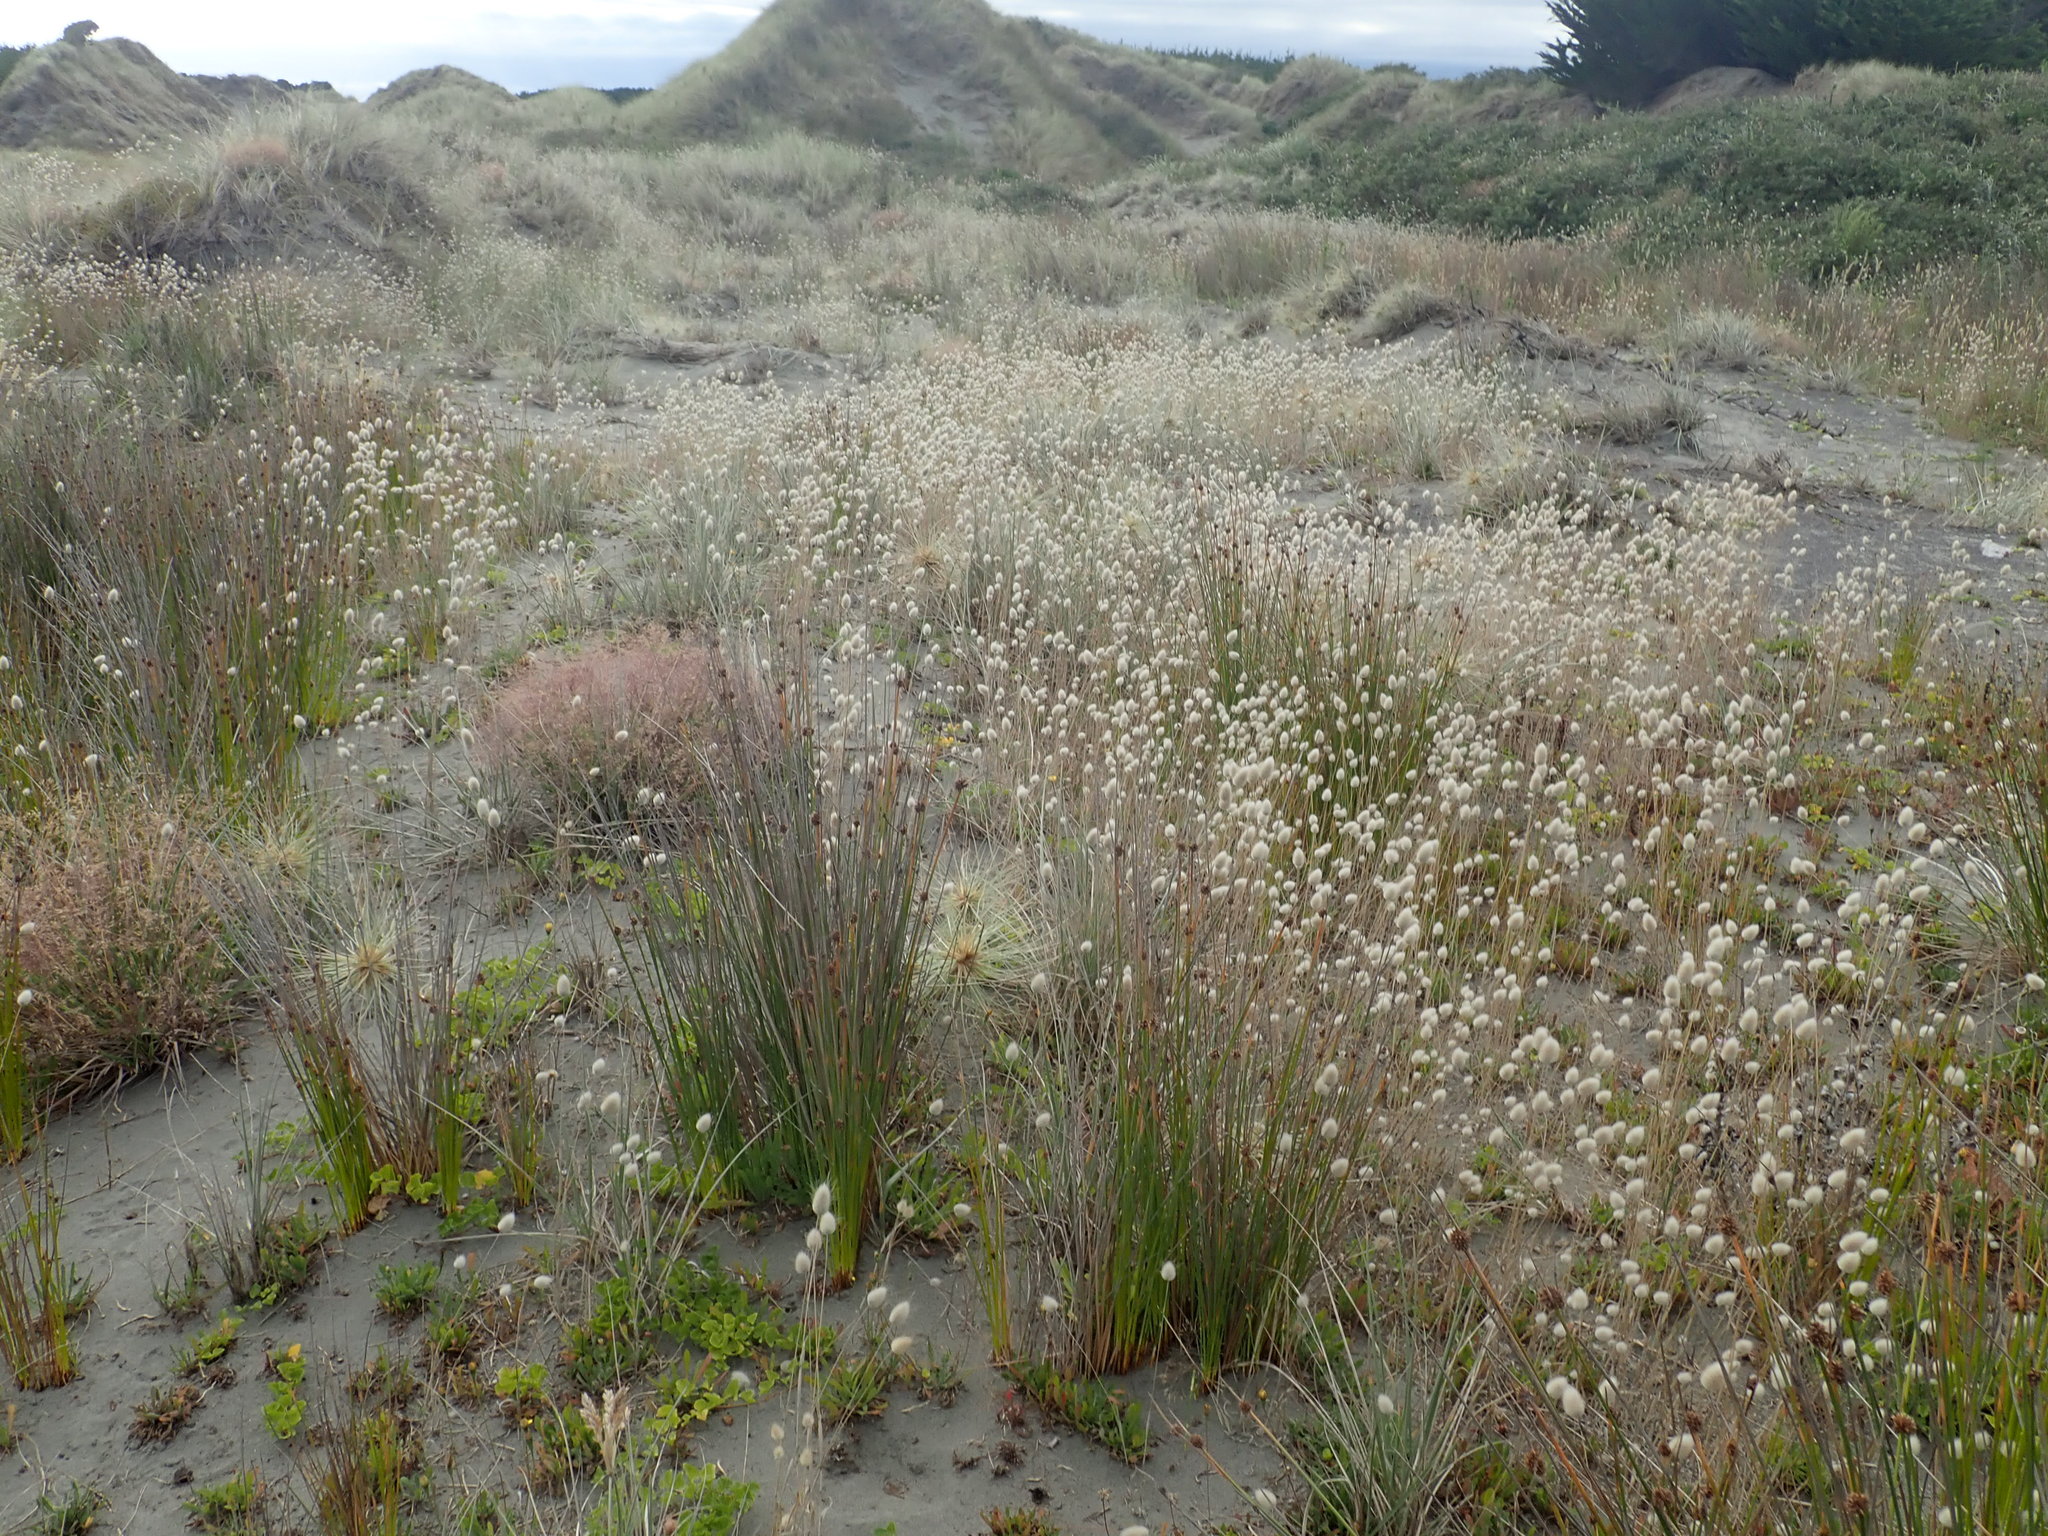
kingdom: Plantae
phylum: Tracheophyta
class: Liliopsida
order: Poales
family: Poaceae
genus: Lagurus
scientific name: Lagurus ovatus
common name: Hare's-tail
